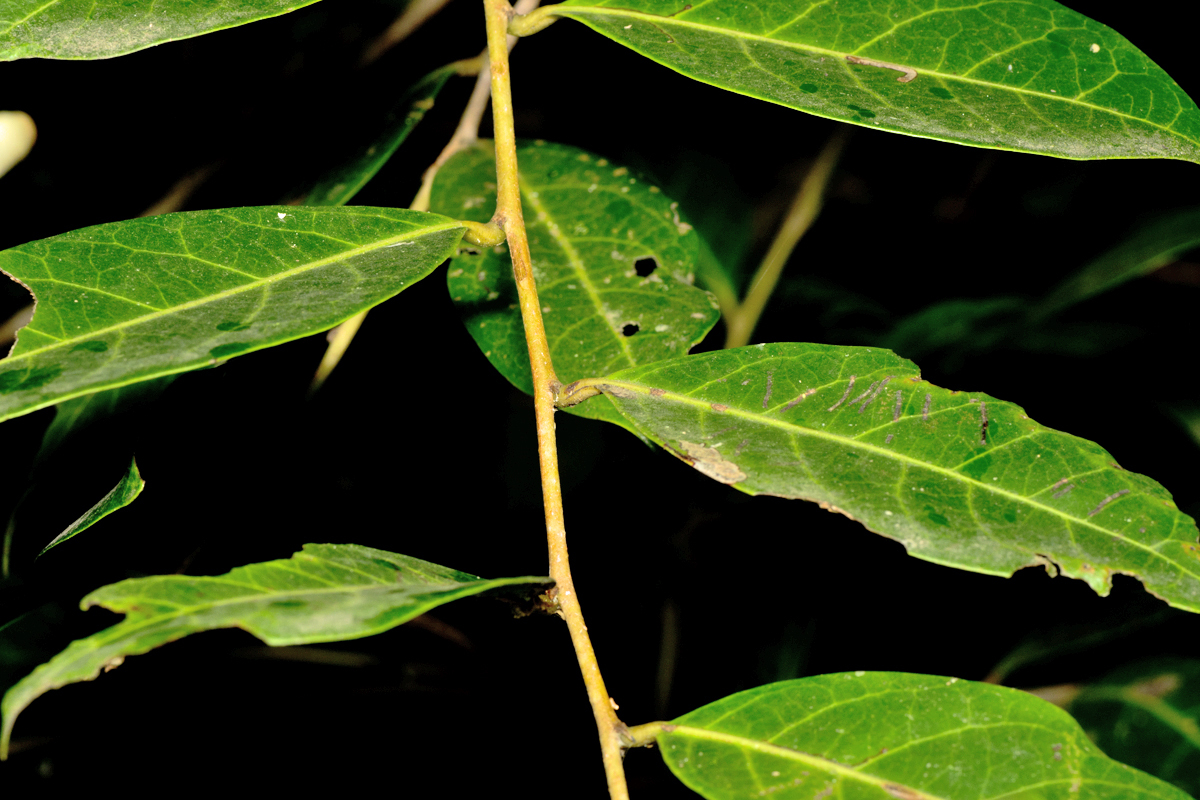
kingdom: Plantae
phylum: Tracheophyta
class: Magnoliopsida
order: Malpighiales
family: Phyllanthaceae
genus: Glochidion
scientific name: Glochidion zeylanicum
